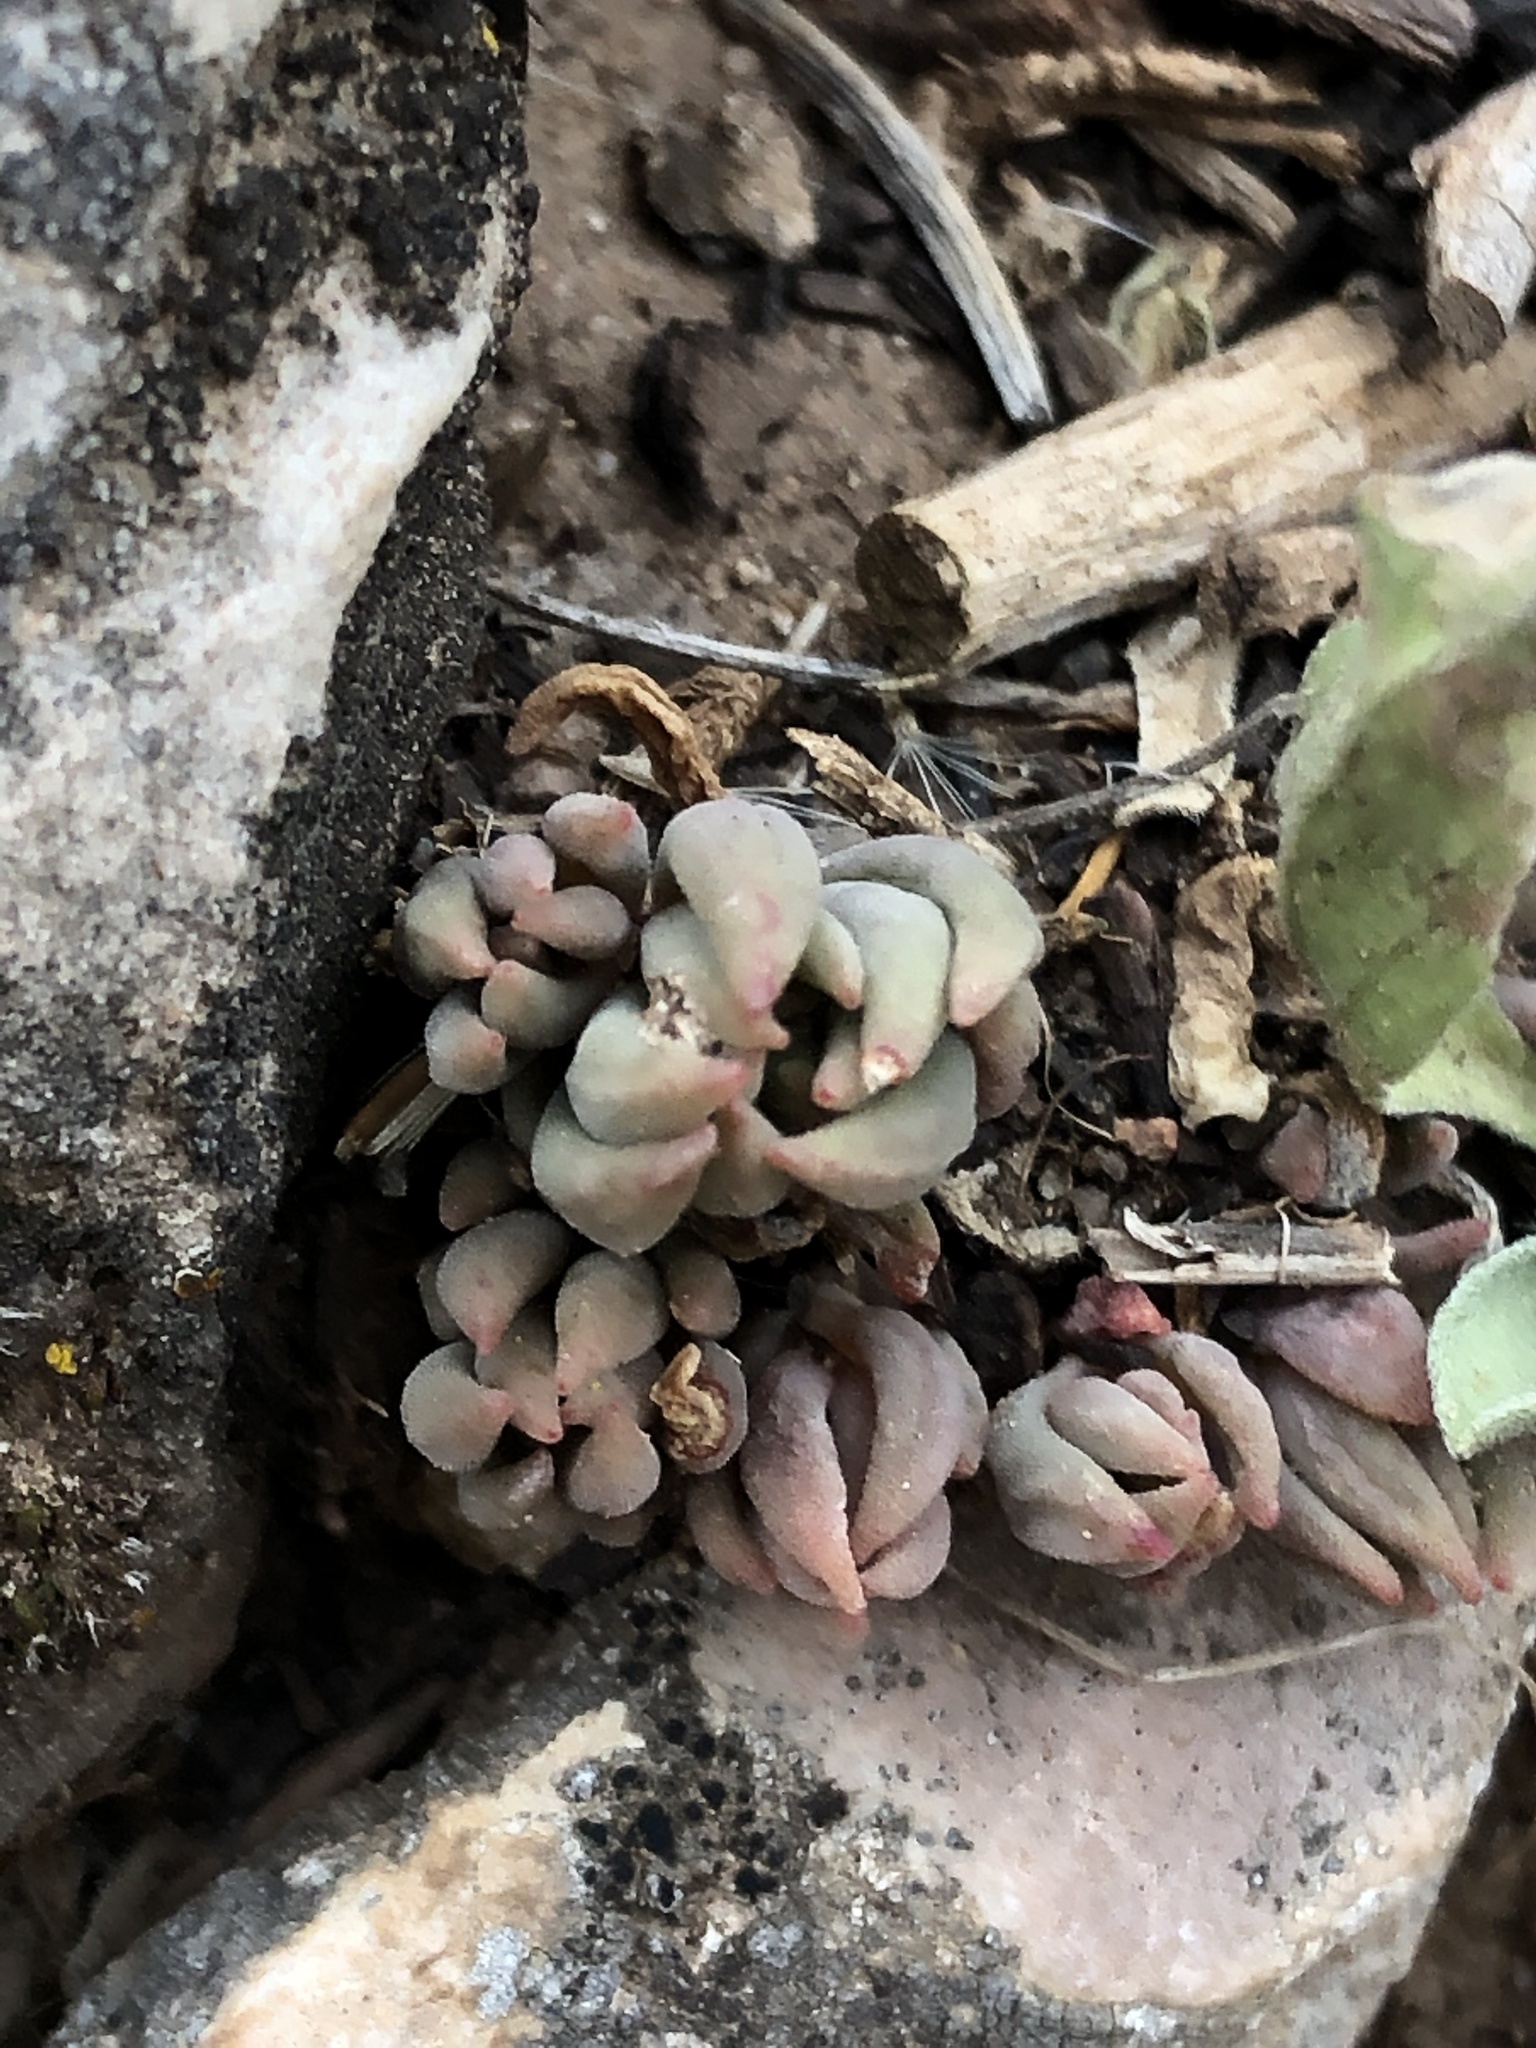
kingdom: Plantae
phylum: Tracheophyta
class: Magnoliopsida
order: Saxifragales
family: Crassulaceae
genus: Sedum
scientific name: Sedum lanceolatum
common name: Common stonecrop
